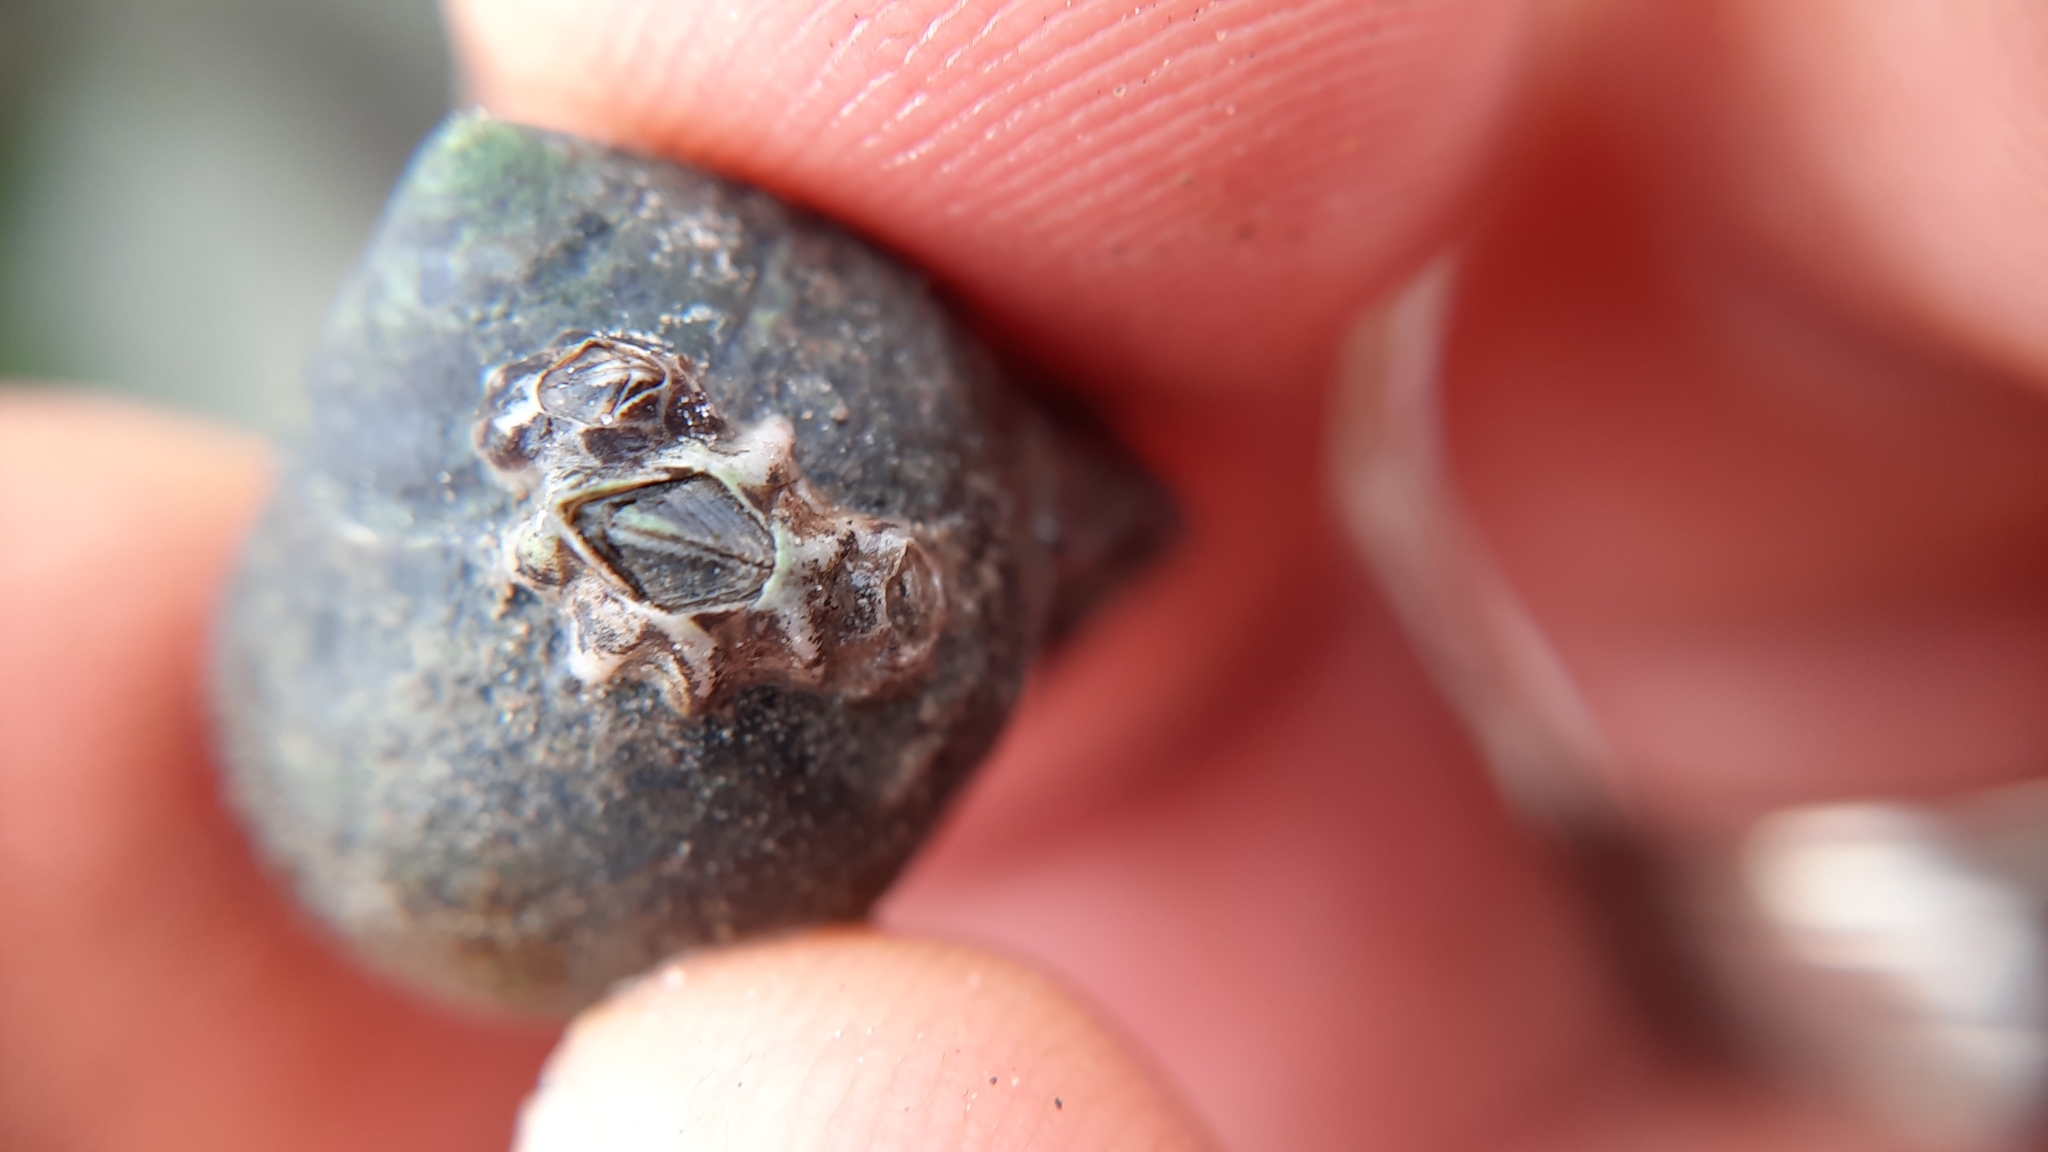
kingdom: Animalia
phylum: Arthropoda
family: Elminiidae
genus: Austrominius
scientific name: Austrominius modestus
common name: Australasian barnacle
